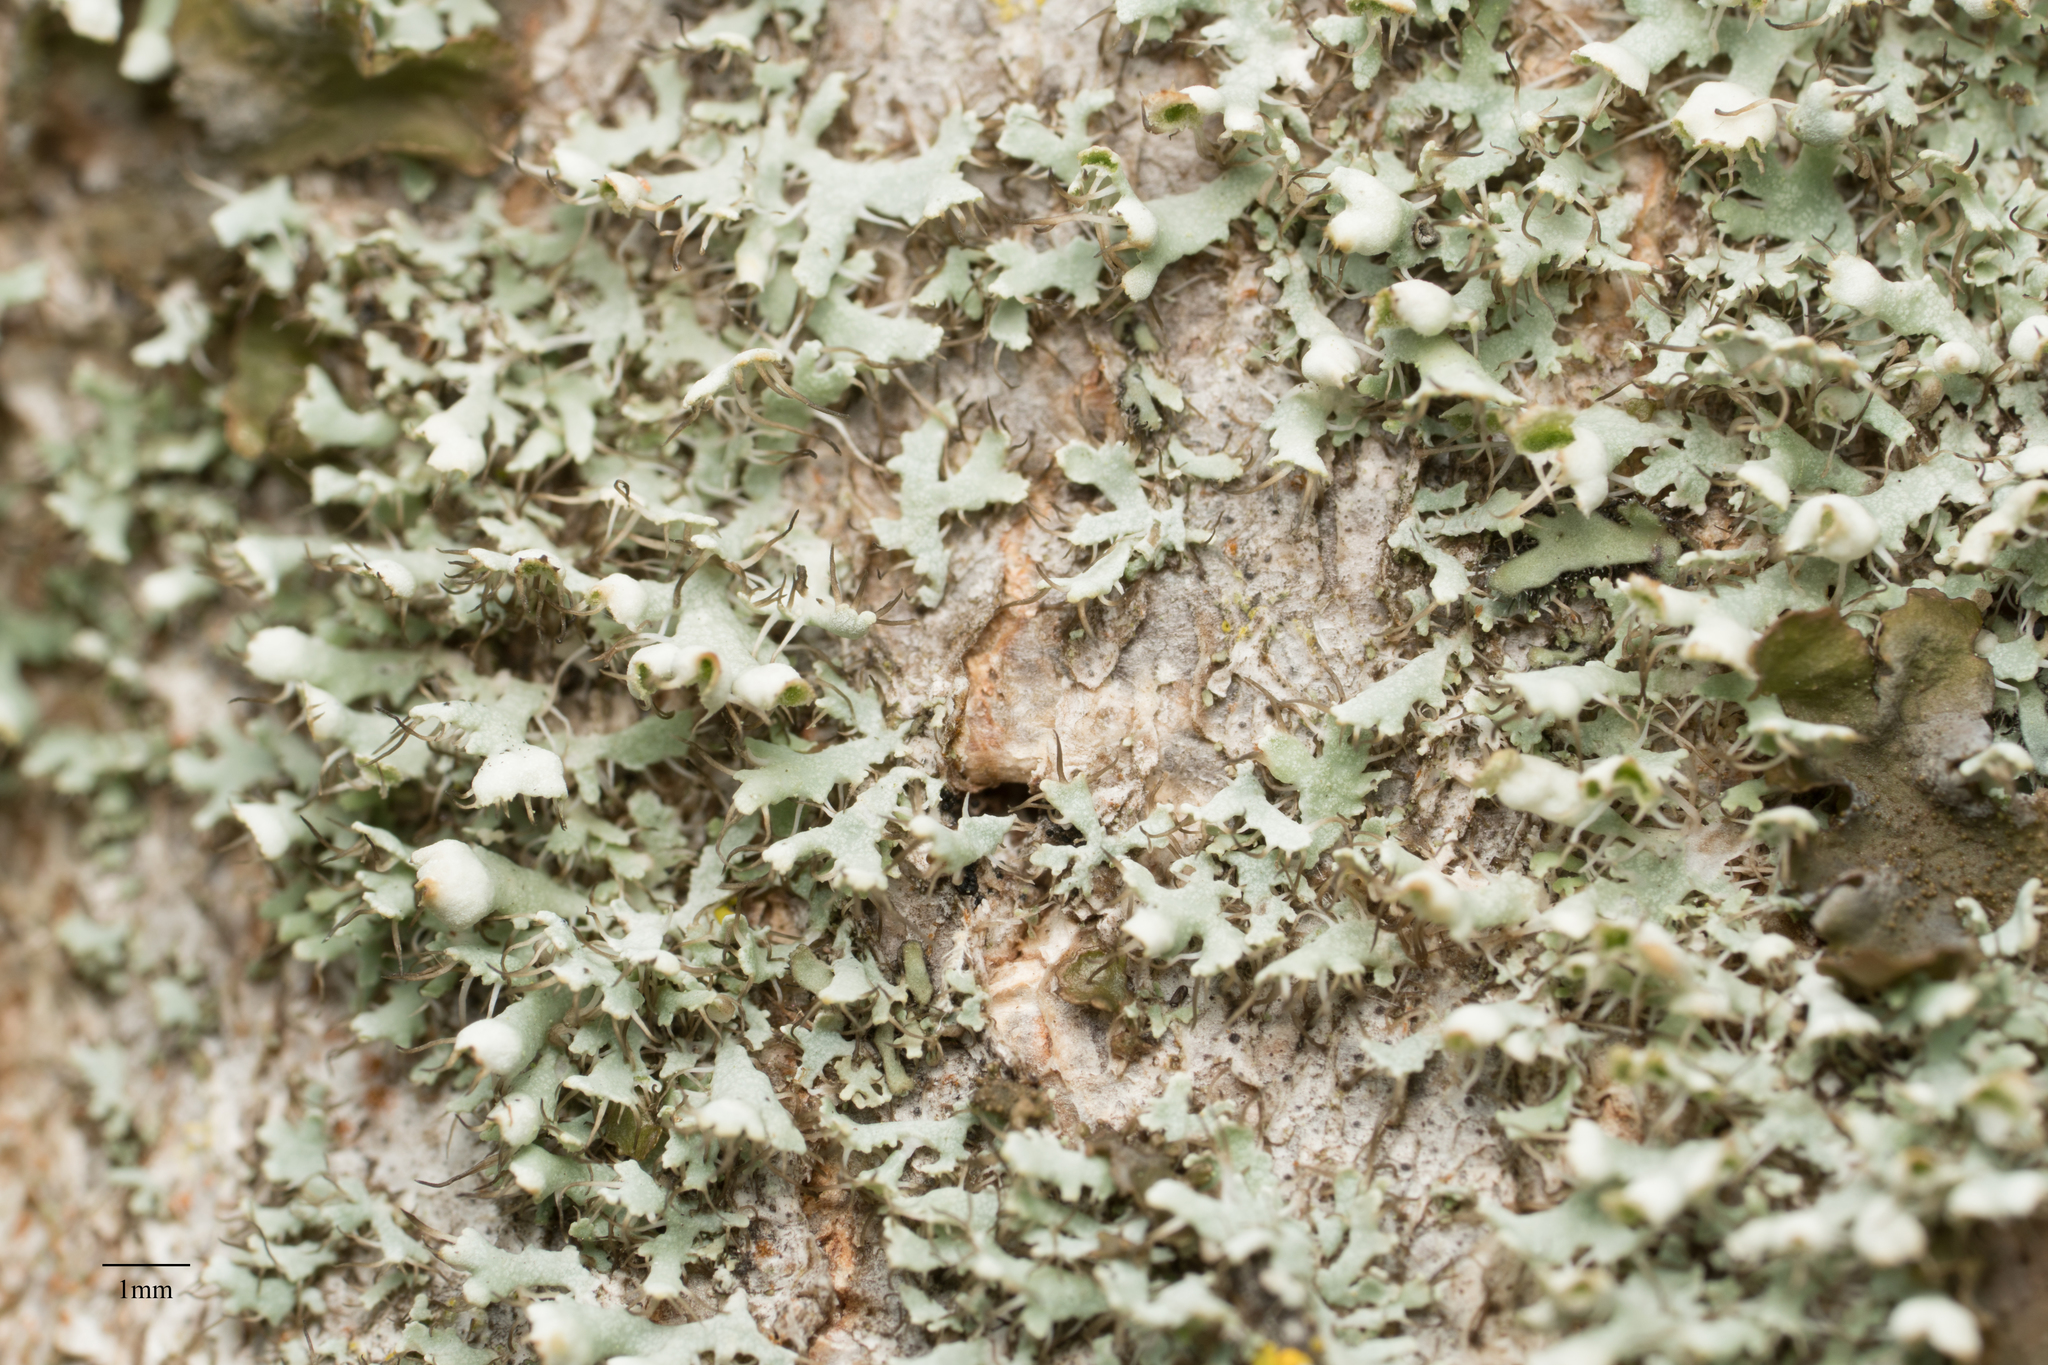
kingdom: Fungi
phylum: Ascomycota
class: Lecanoromycetes
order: Caliciales
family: Physciaceae
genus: Physcia
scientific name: Physcia adscendens
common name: Hooded rosette lichen
